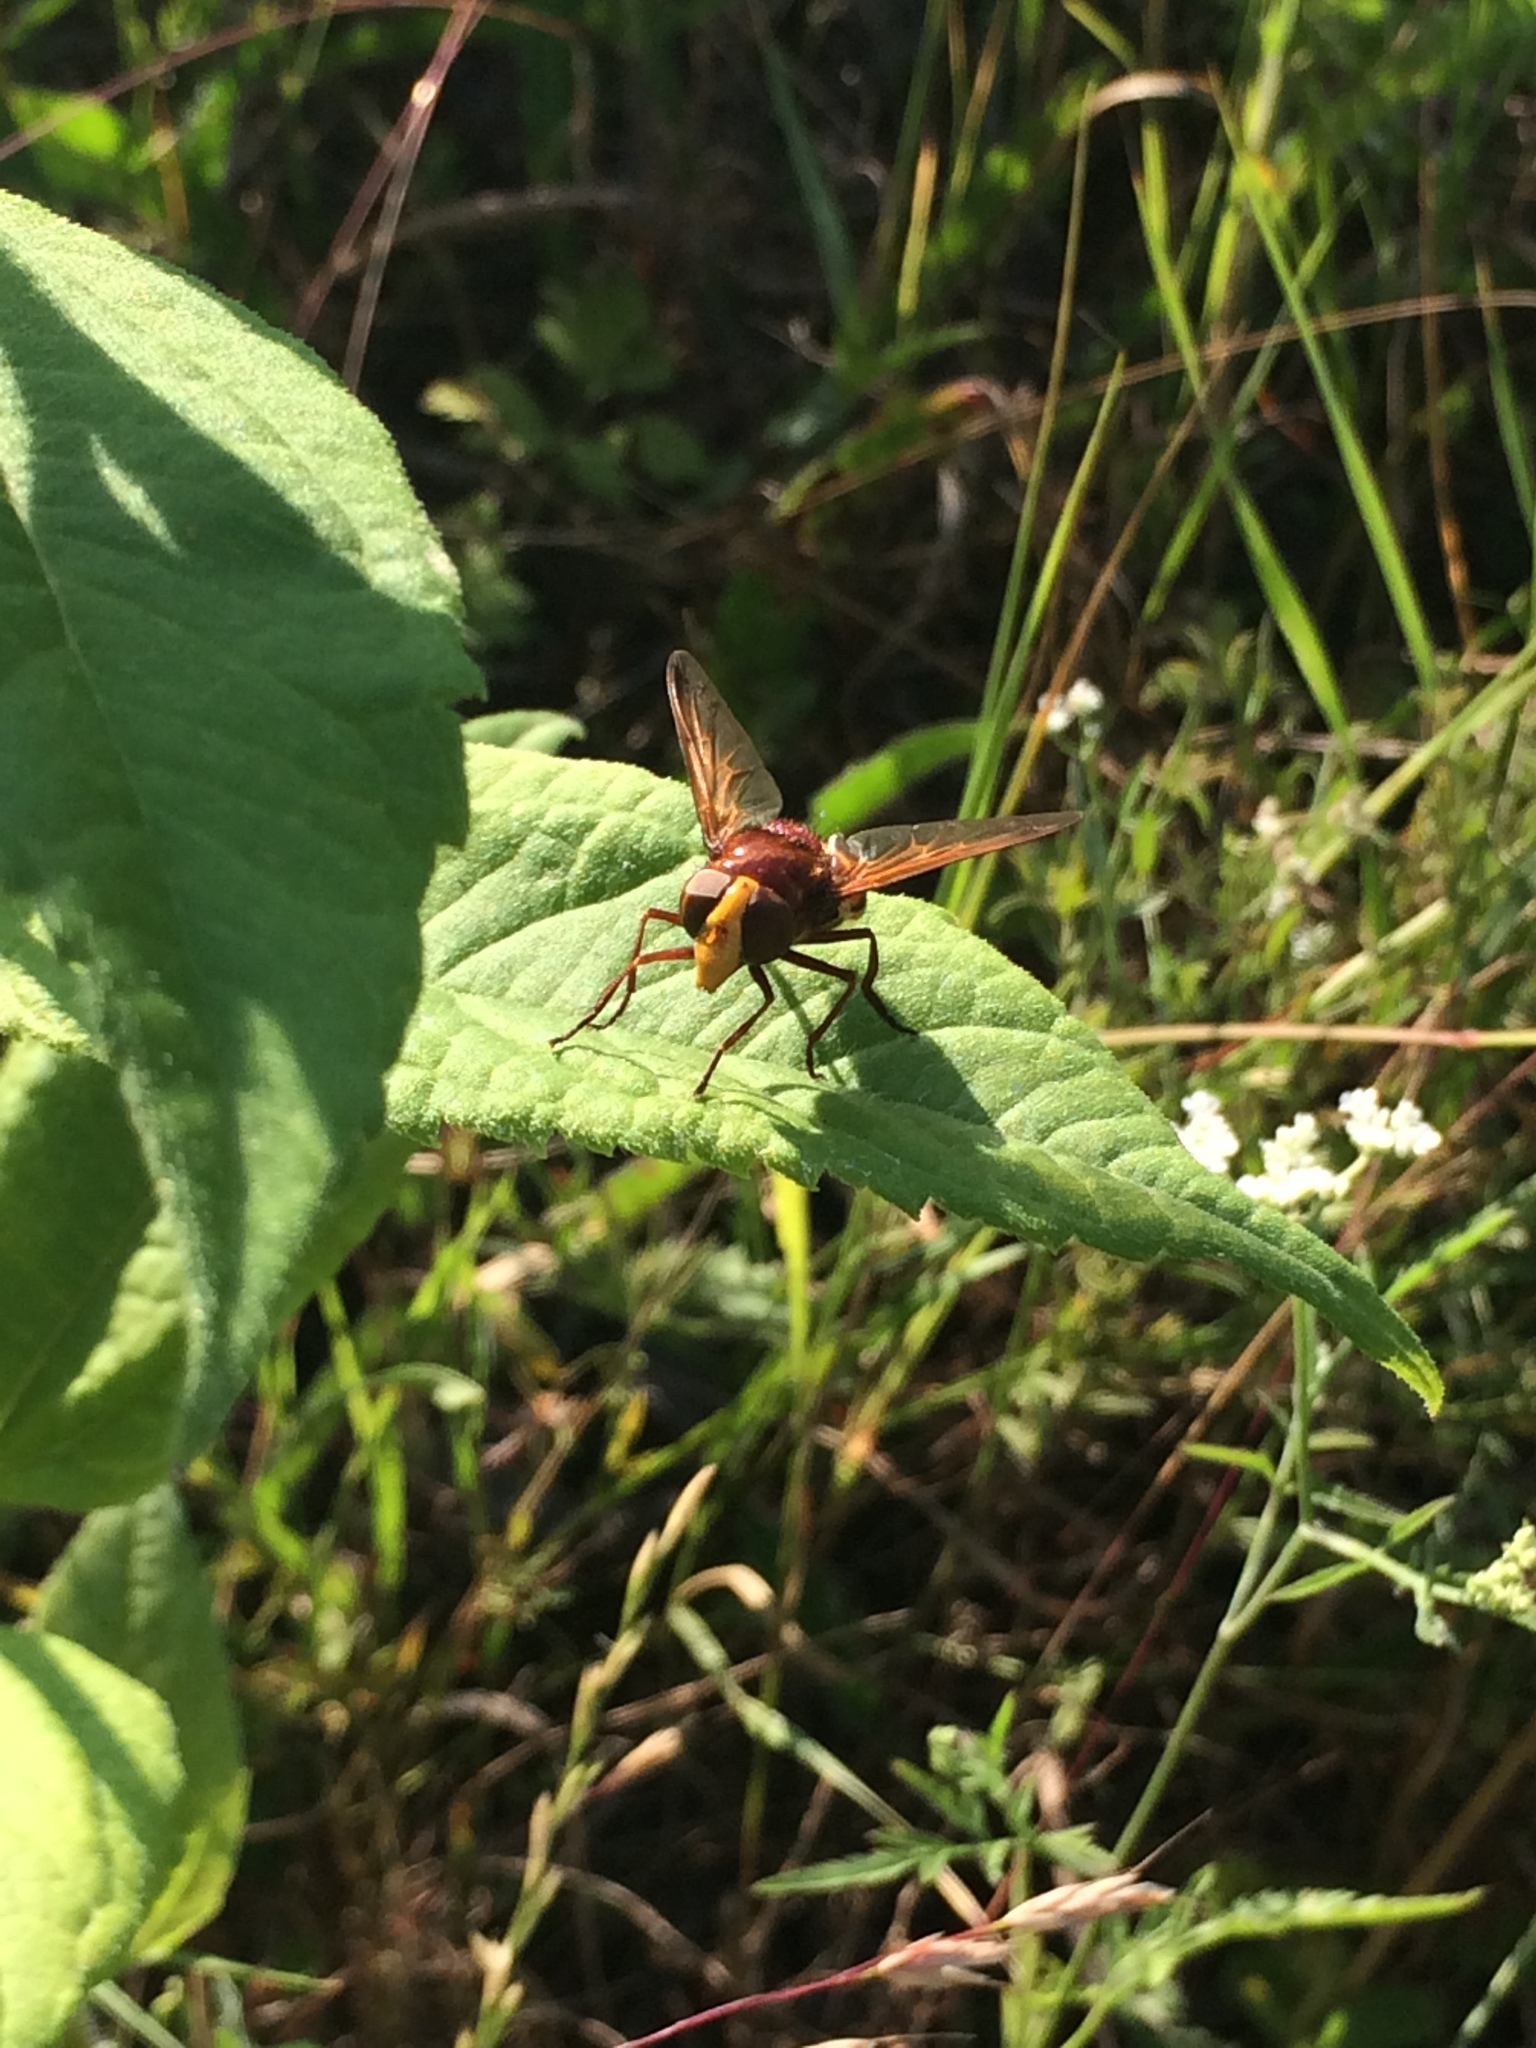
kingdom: Animalia
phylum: Arthropoda
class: Insecta
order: Diptera
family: Syrphidae
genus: Volucella
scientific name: Volucella zonaria
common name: Hornet hoverfly
